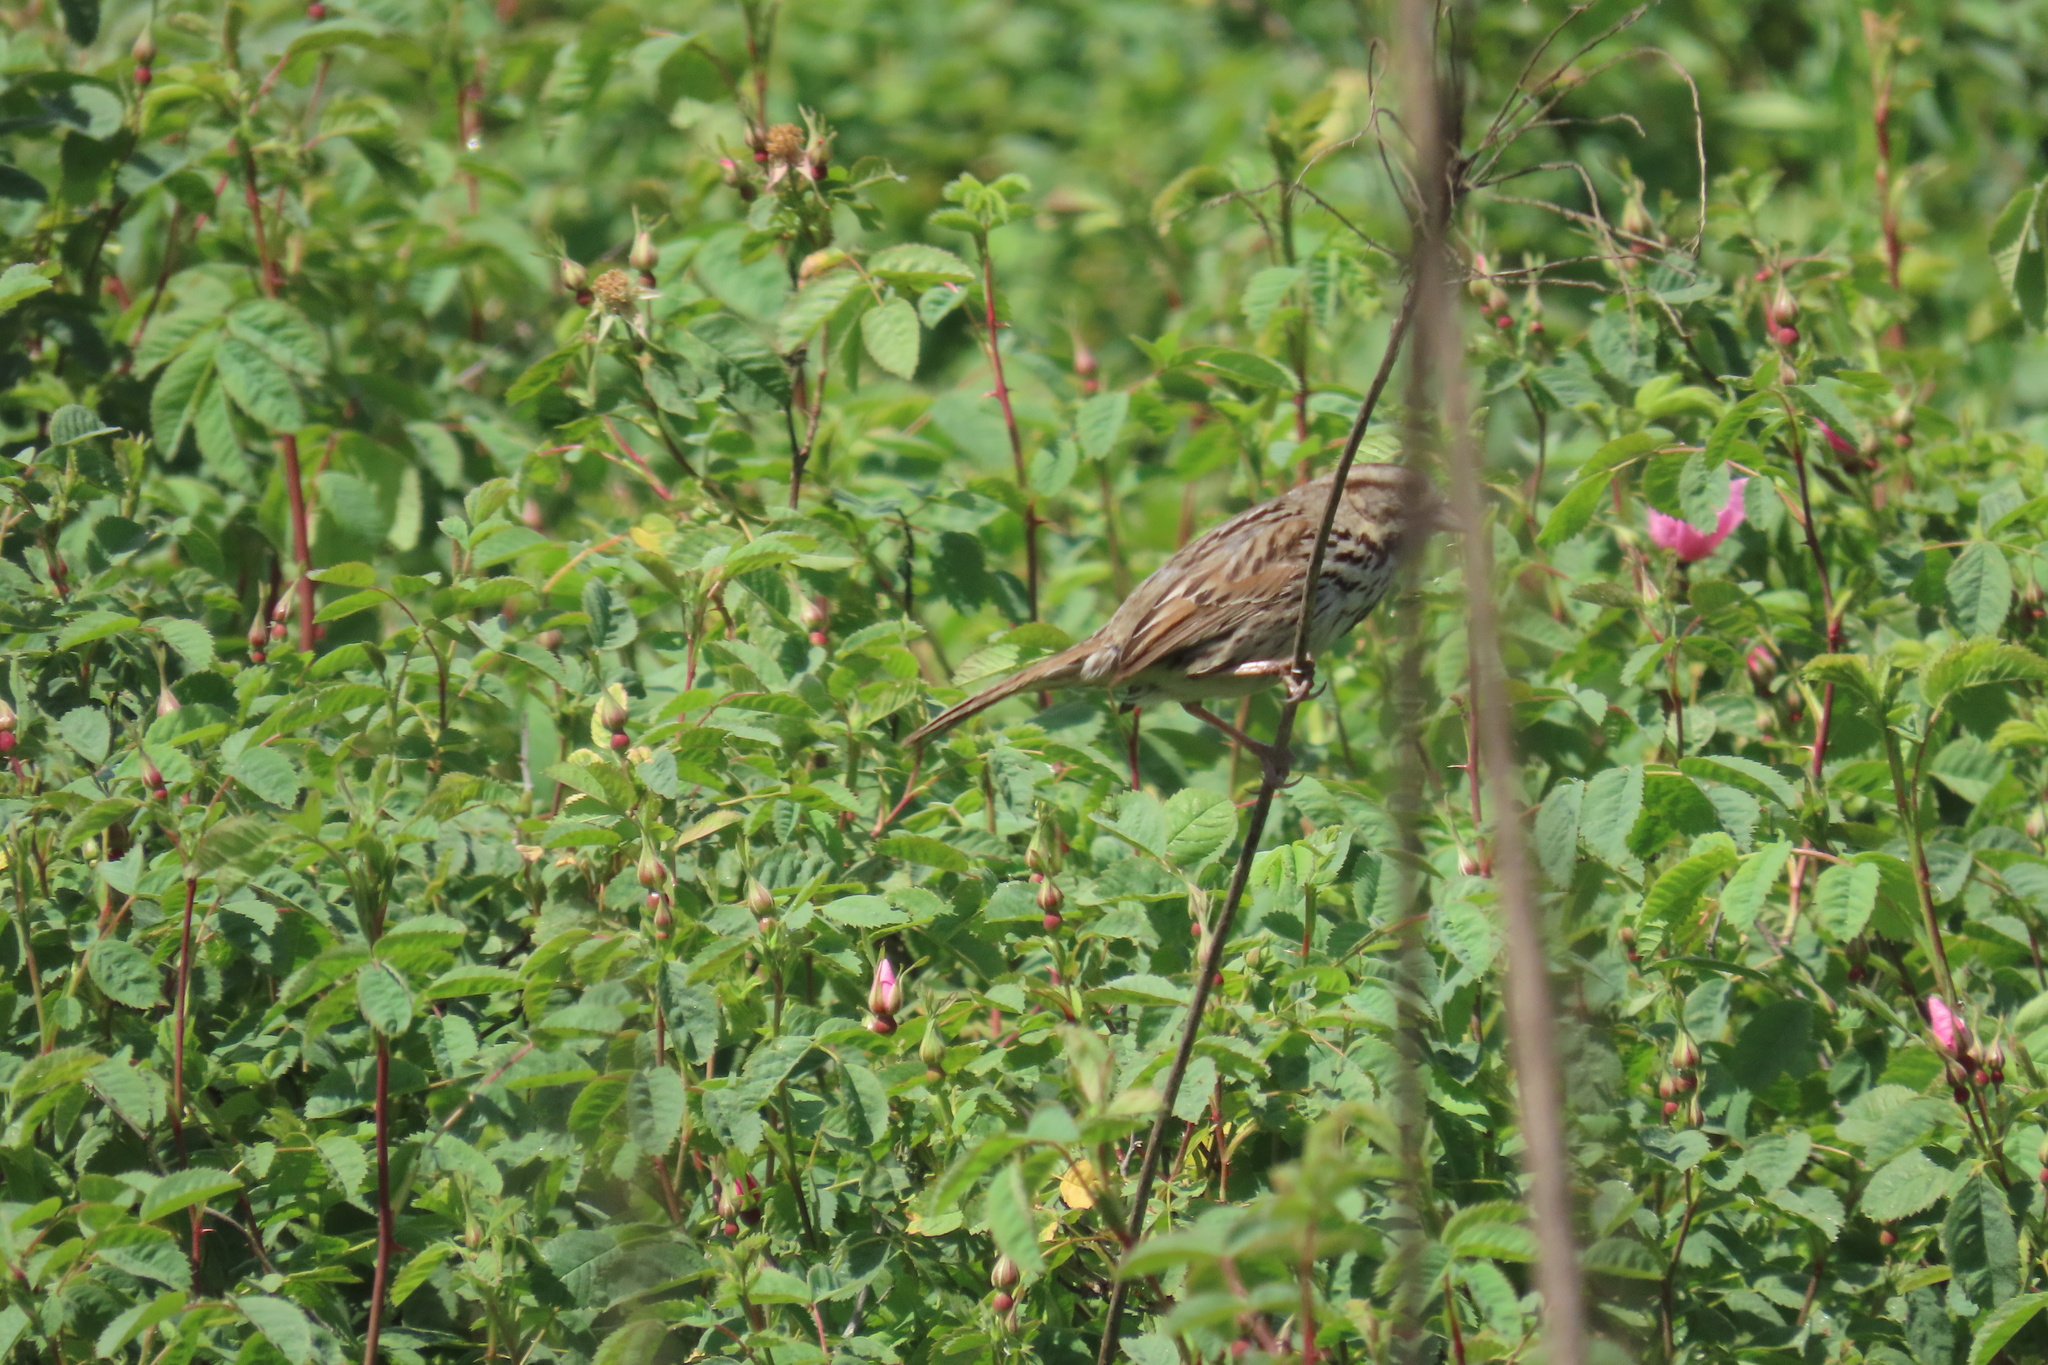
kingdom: Animalia
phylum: Chordata
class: Aves
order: Passeriformes
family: Passerellidae
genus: Melospiza
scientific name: Melospiza melodia
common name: Song sparrow
